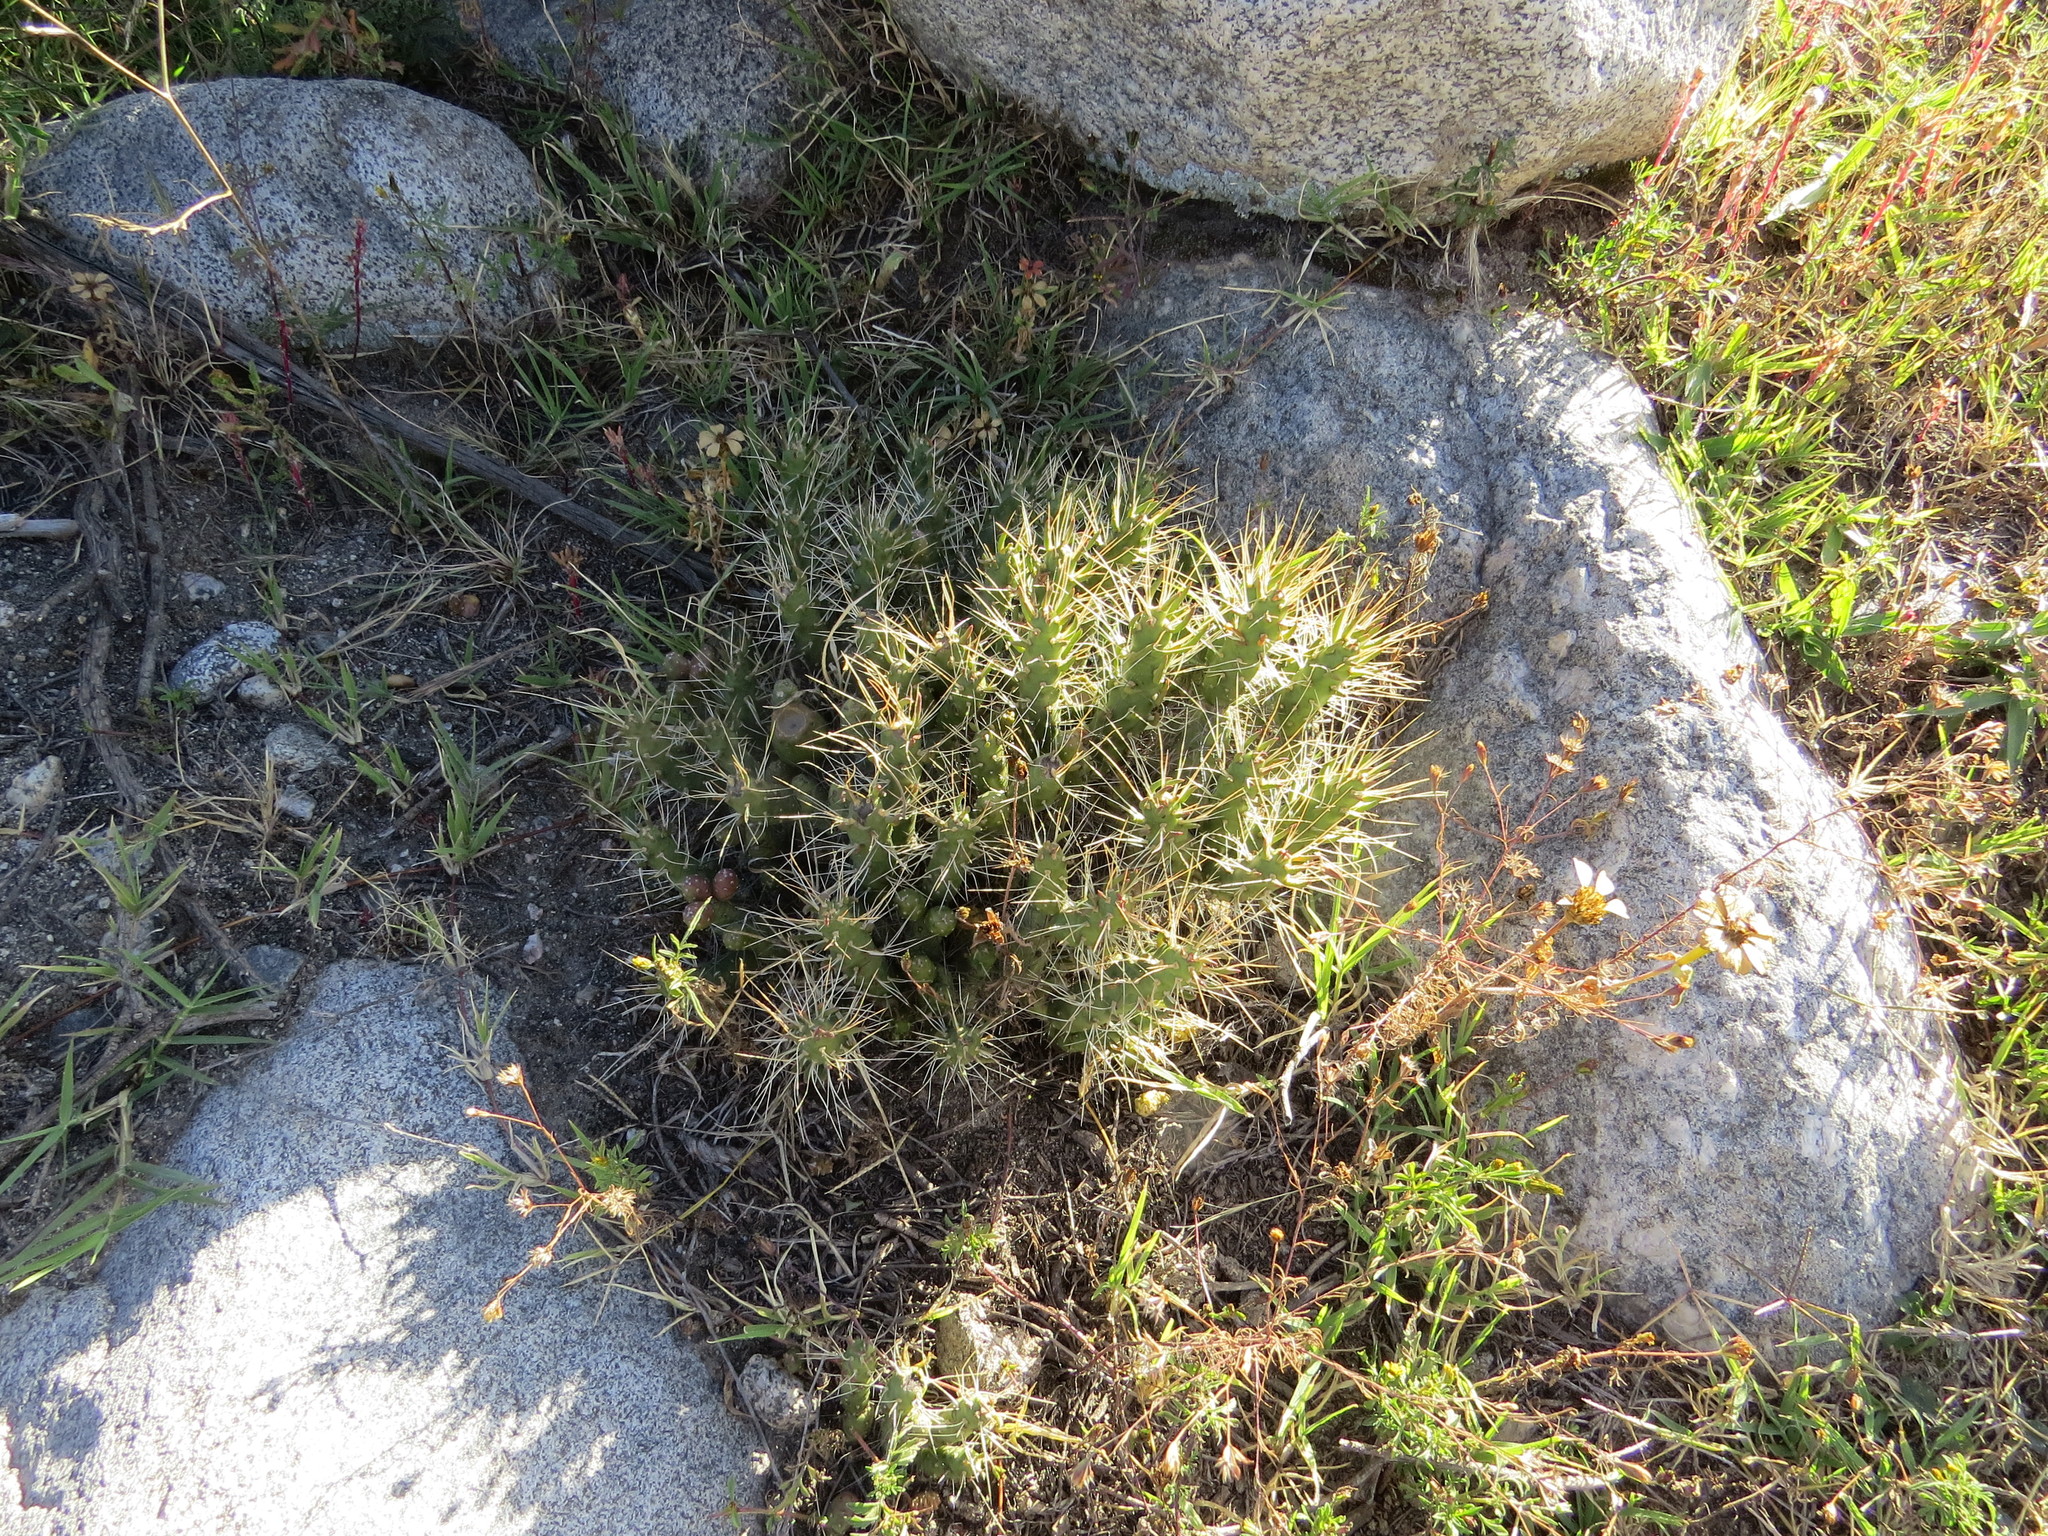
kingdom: Plantae
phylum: Tracheophyta
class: Magnoliopsida
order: Caryophyllales
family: Cactaceae
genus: Tephrocactus
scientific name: Tephrocactus verschaffeltii
